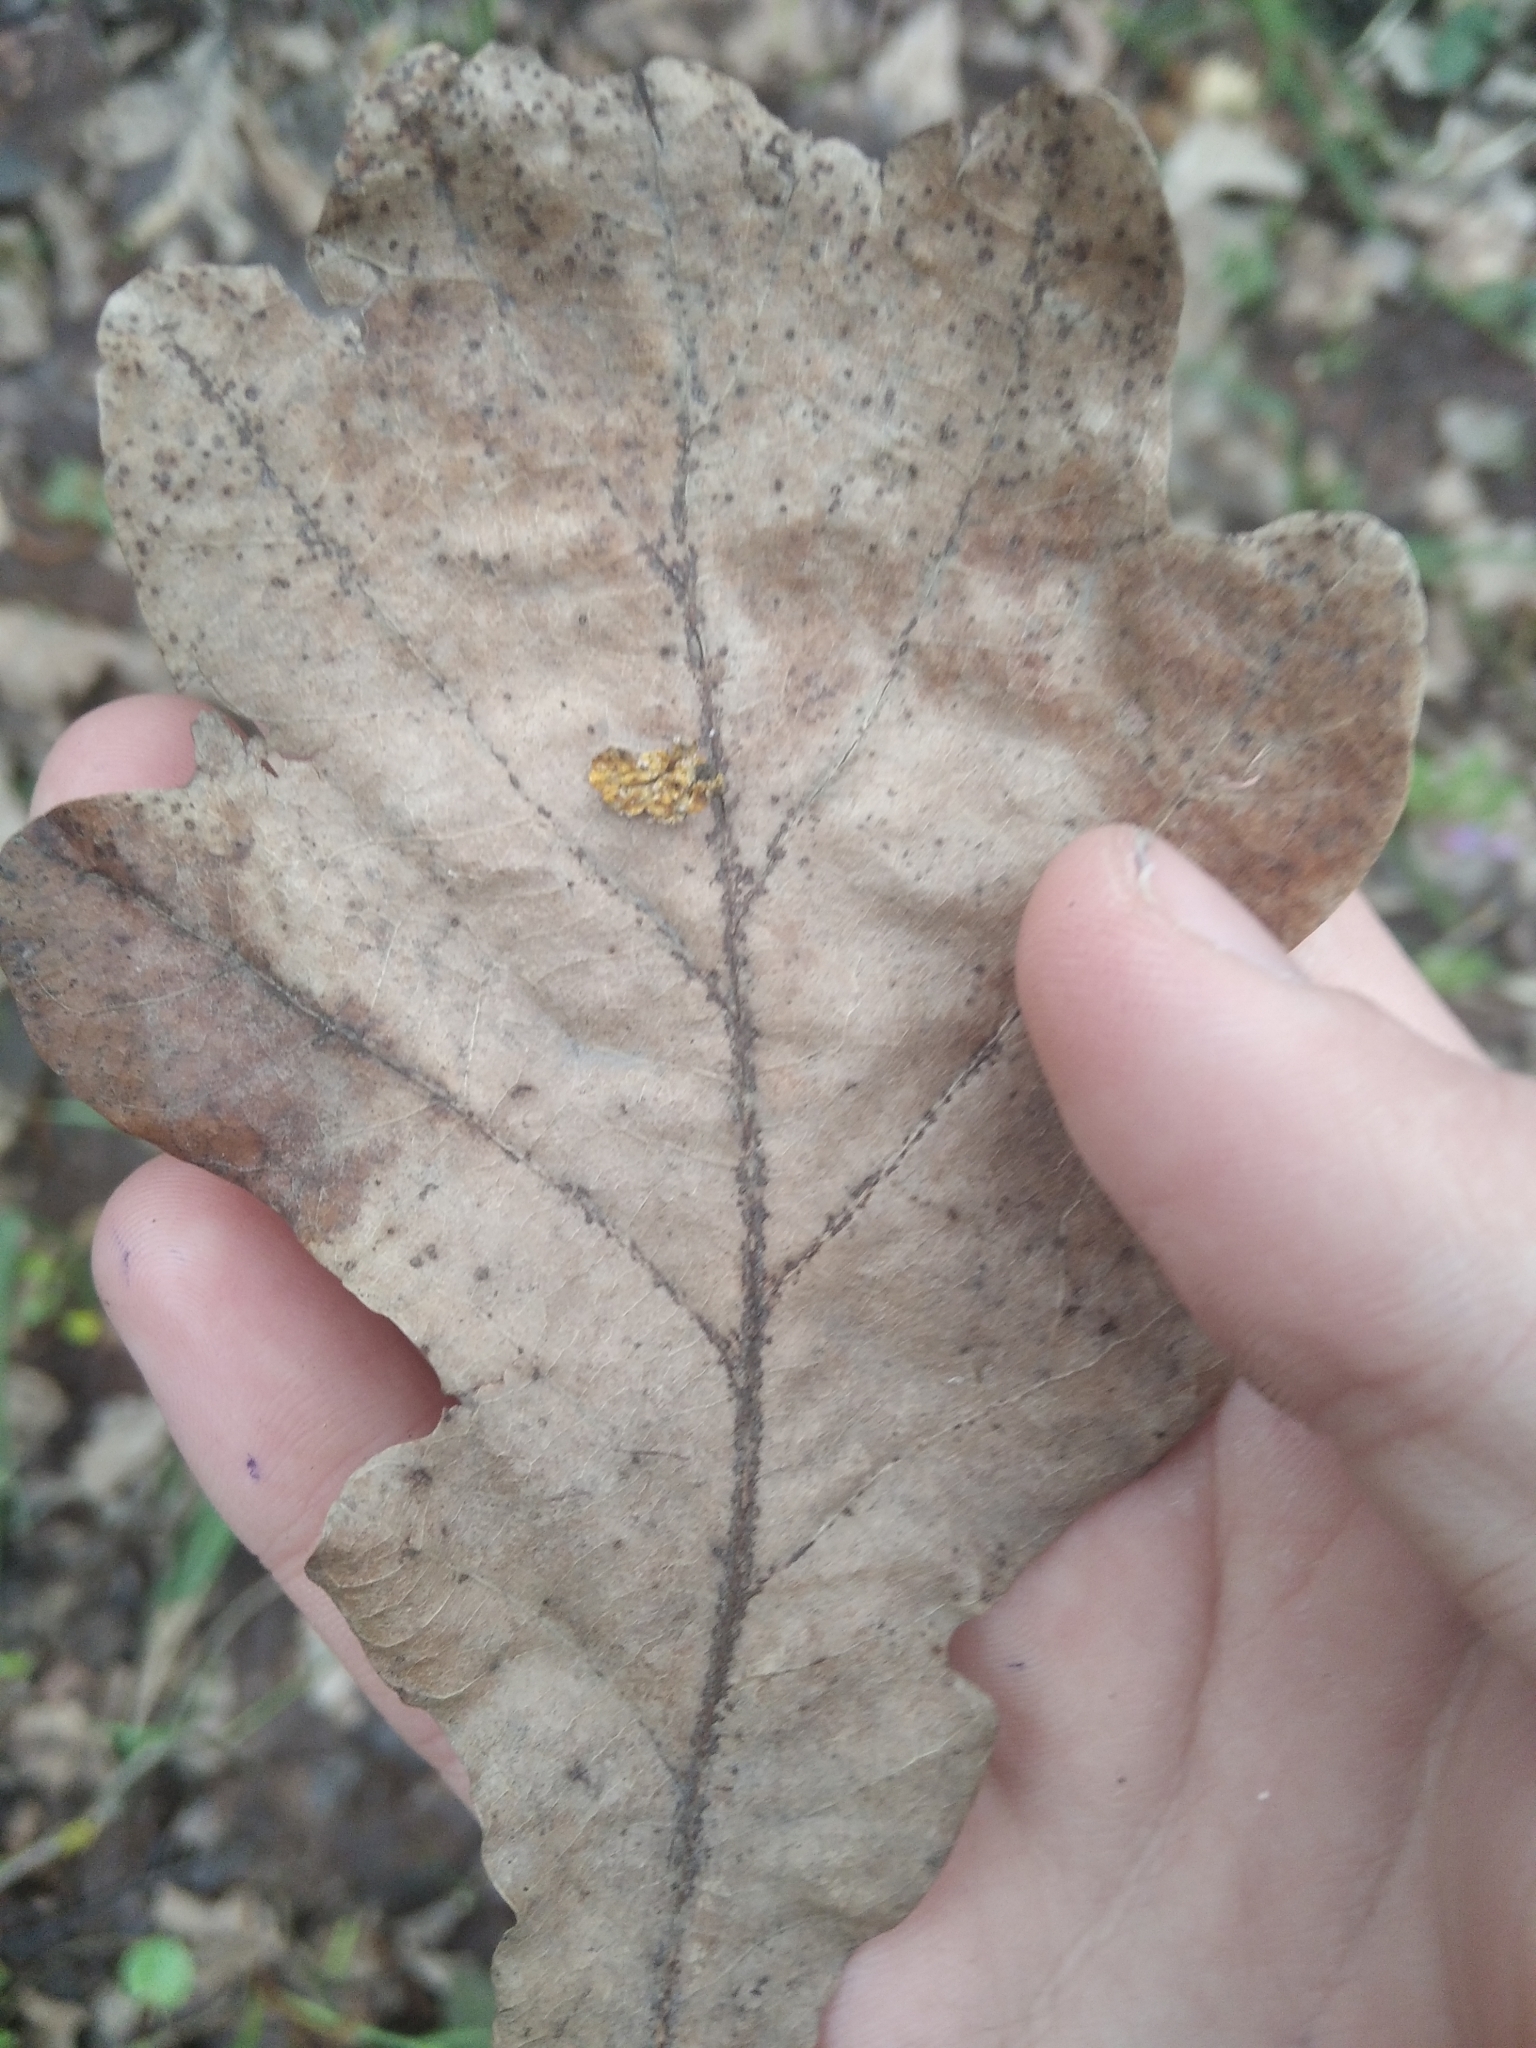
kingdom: Plantae
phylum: Tracheophyta
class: Magnoliopsida
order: Fagales
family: Fagaceae
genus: Quercus
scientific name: Quercus robur
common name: Pedunculate oak
